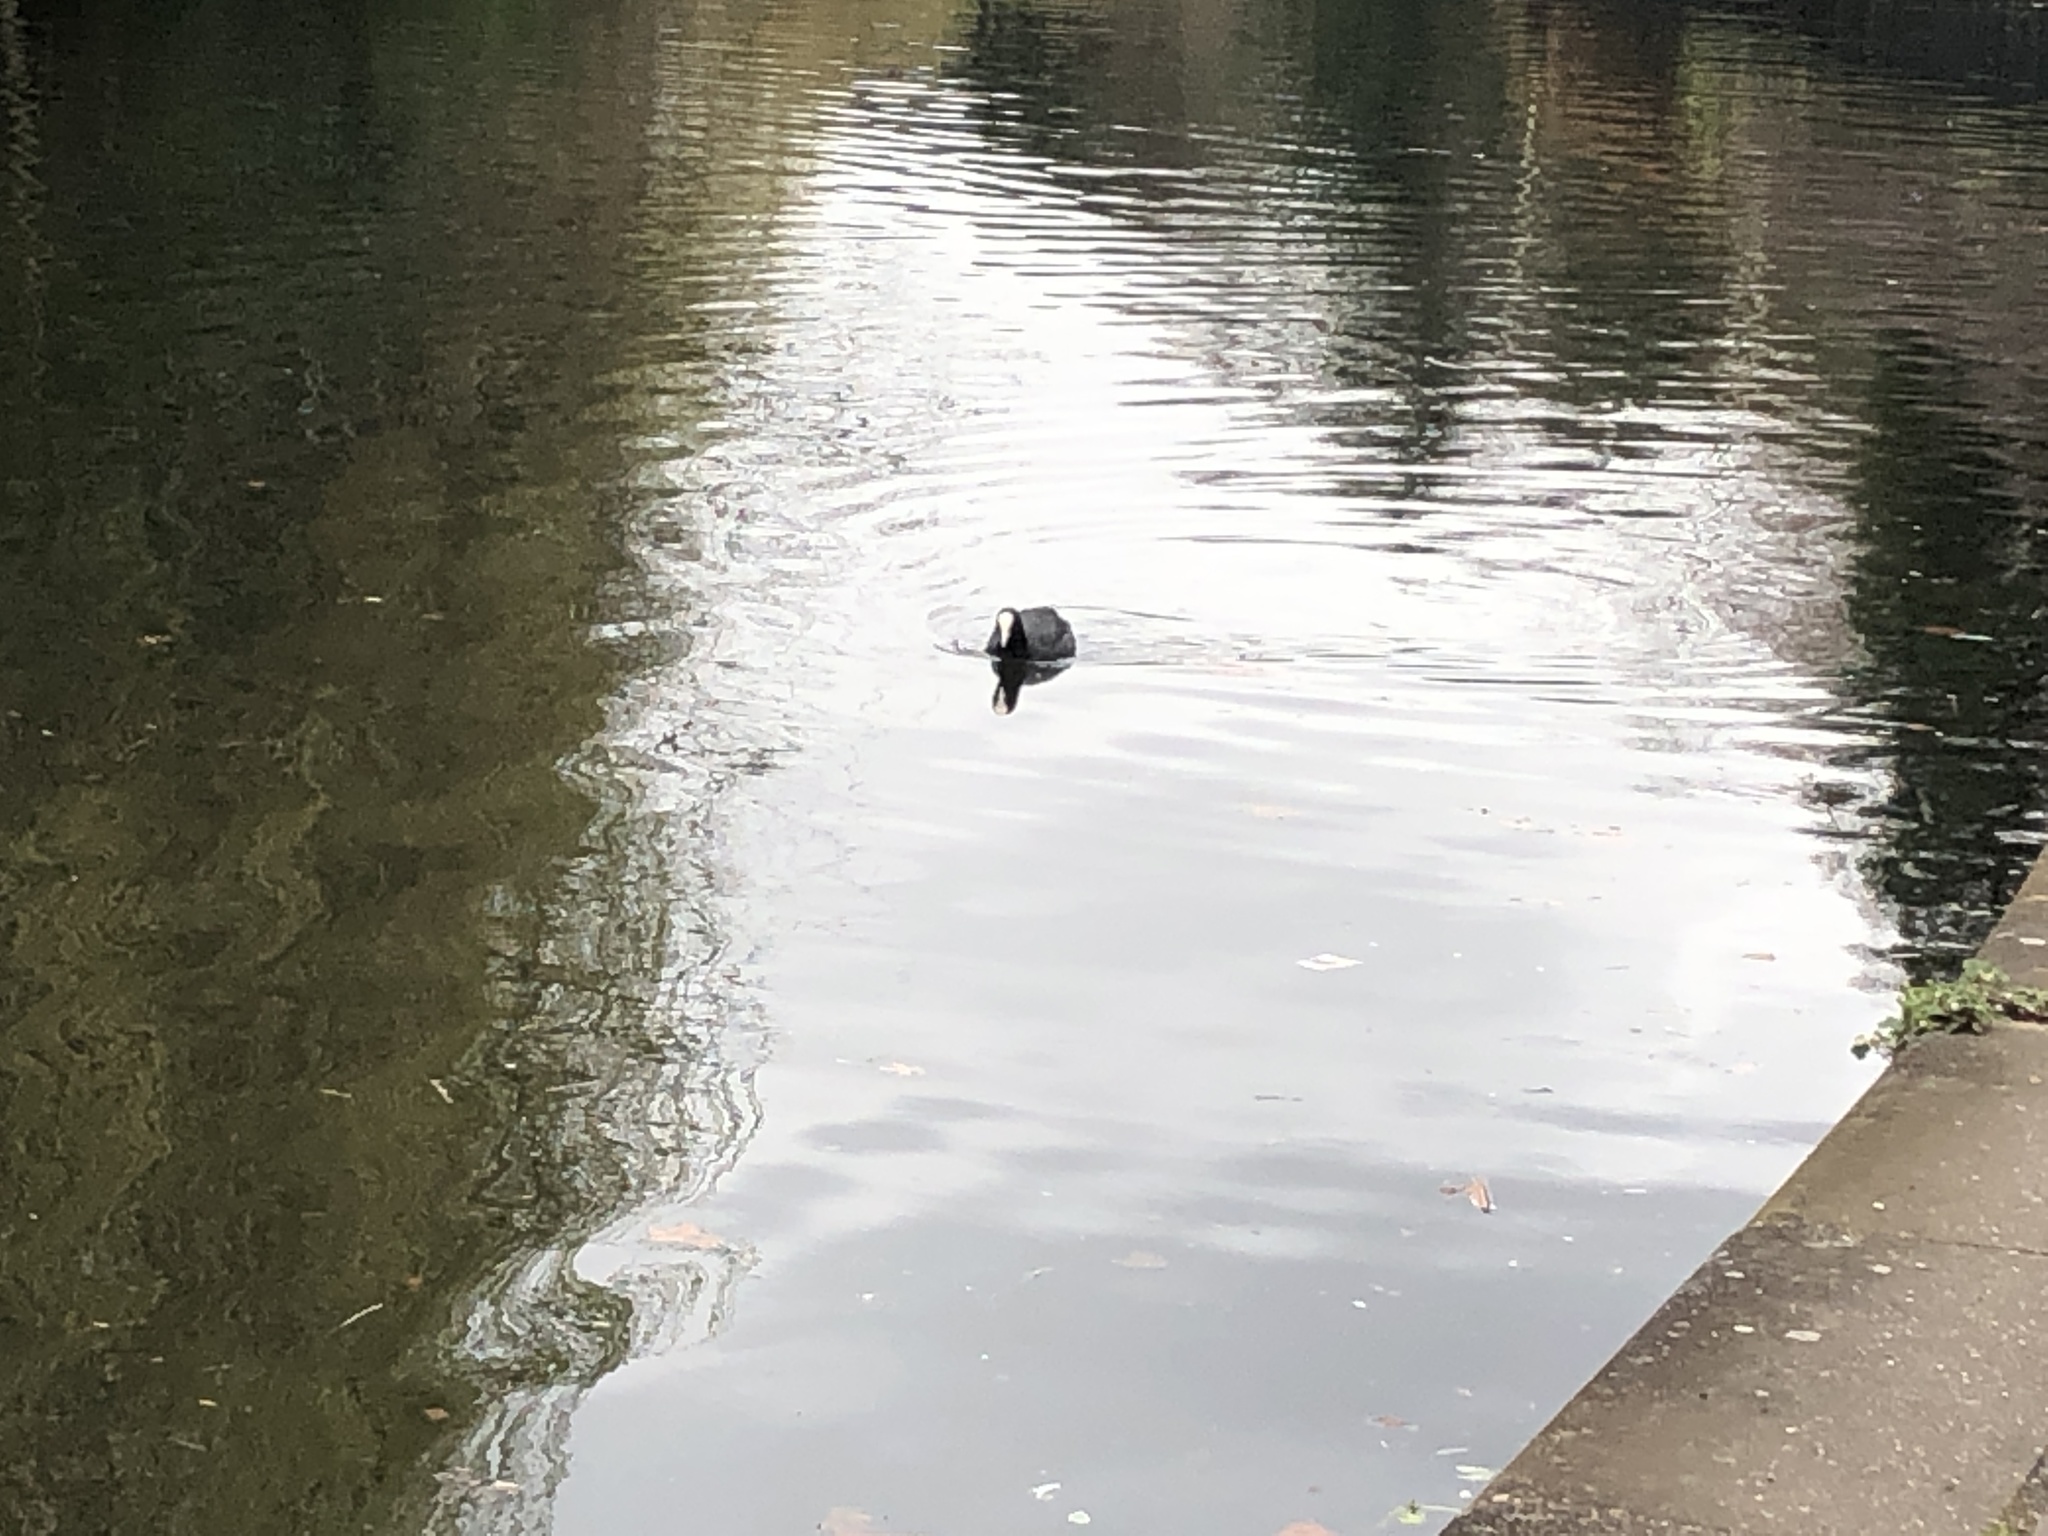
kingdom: Animalia
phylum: Chordata
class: Aves
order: Gruiformes
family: Rallidae
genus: Fulica
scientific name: Fulica atra
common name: Eurasian coot
